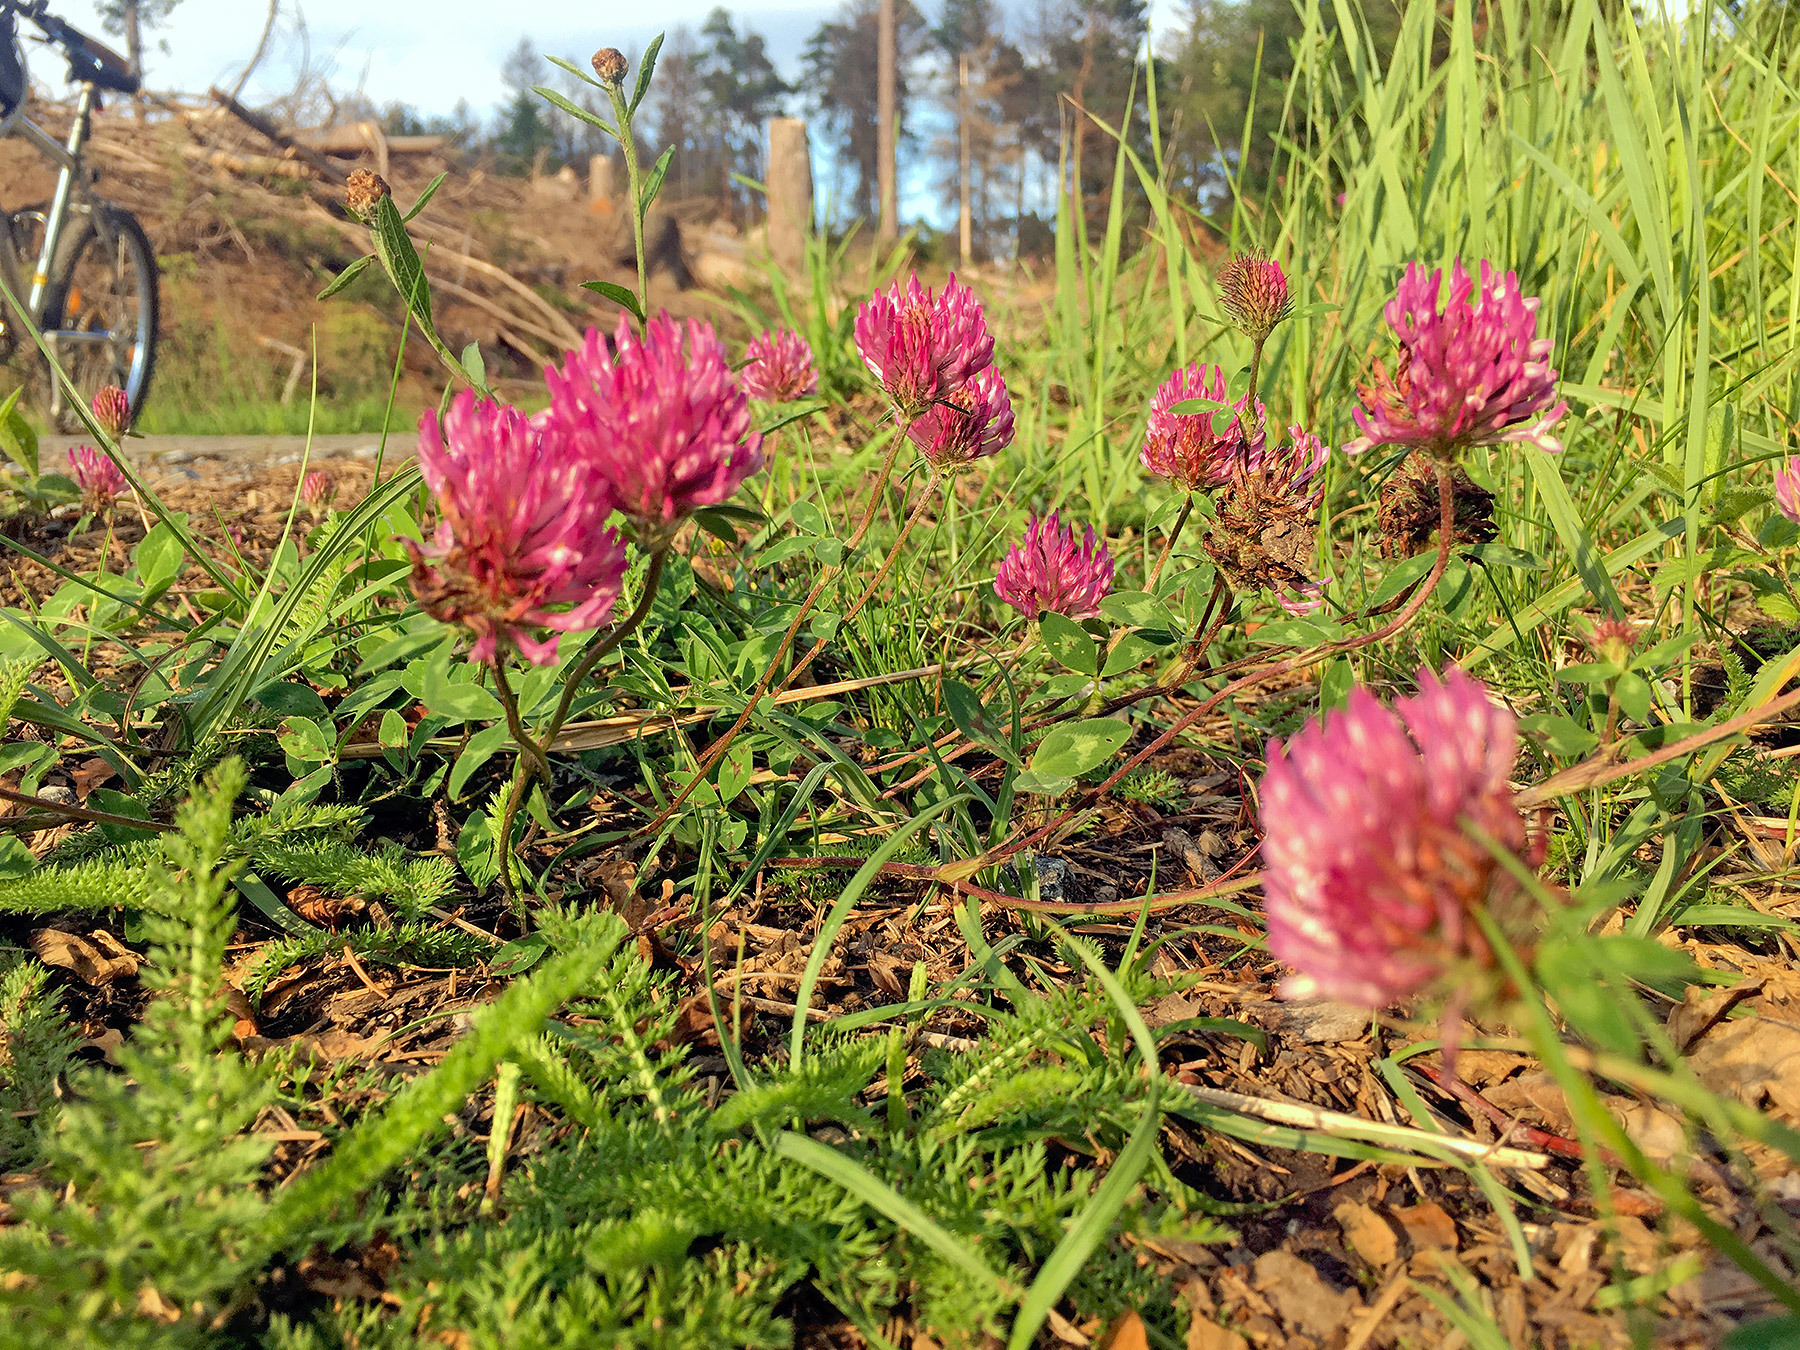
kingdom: Plantae
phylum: Tracheophyta
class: Magnoliopsida
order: Fabales
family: Fabaceae
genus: Trifolium
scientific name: Trifolium pratense
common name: Red clover
